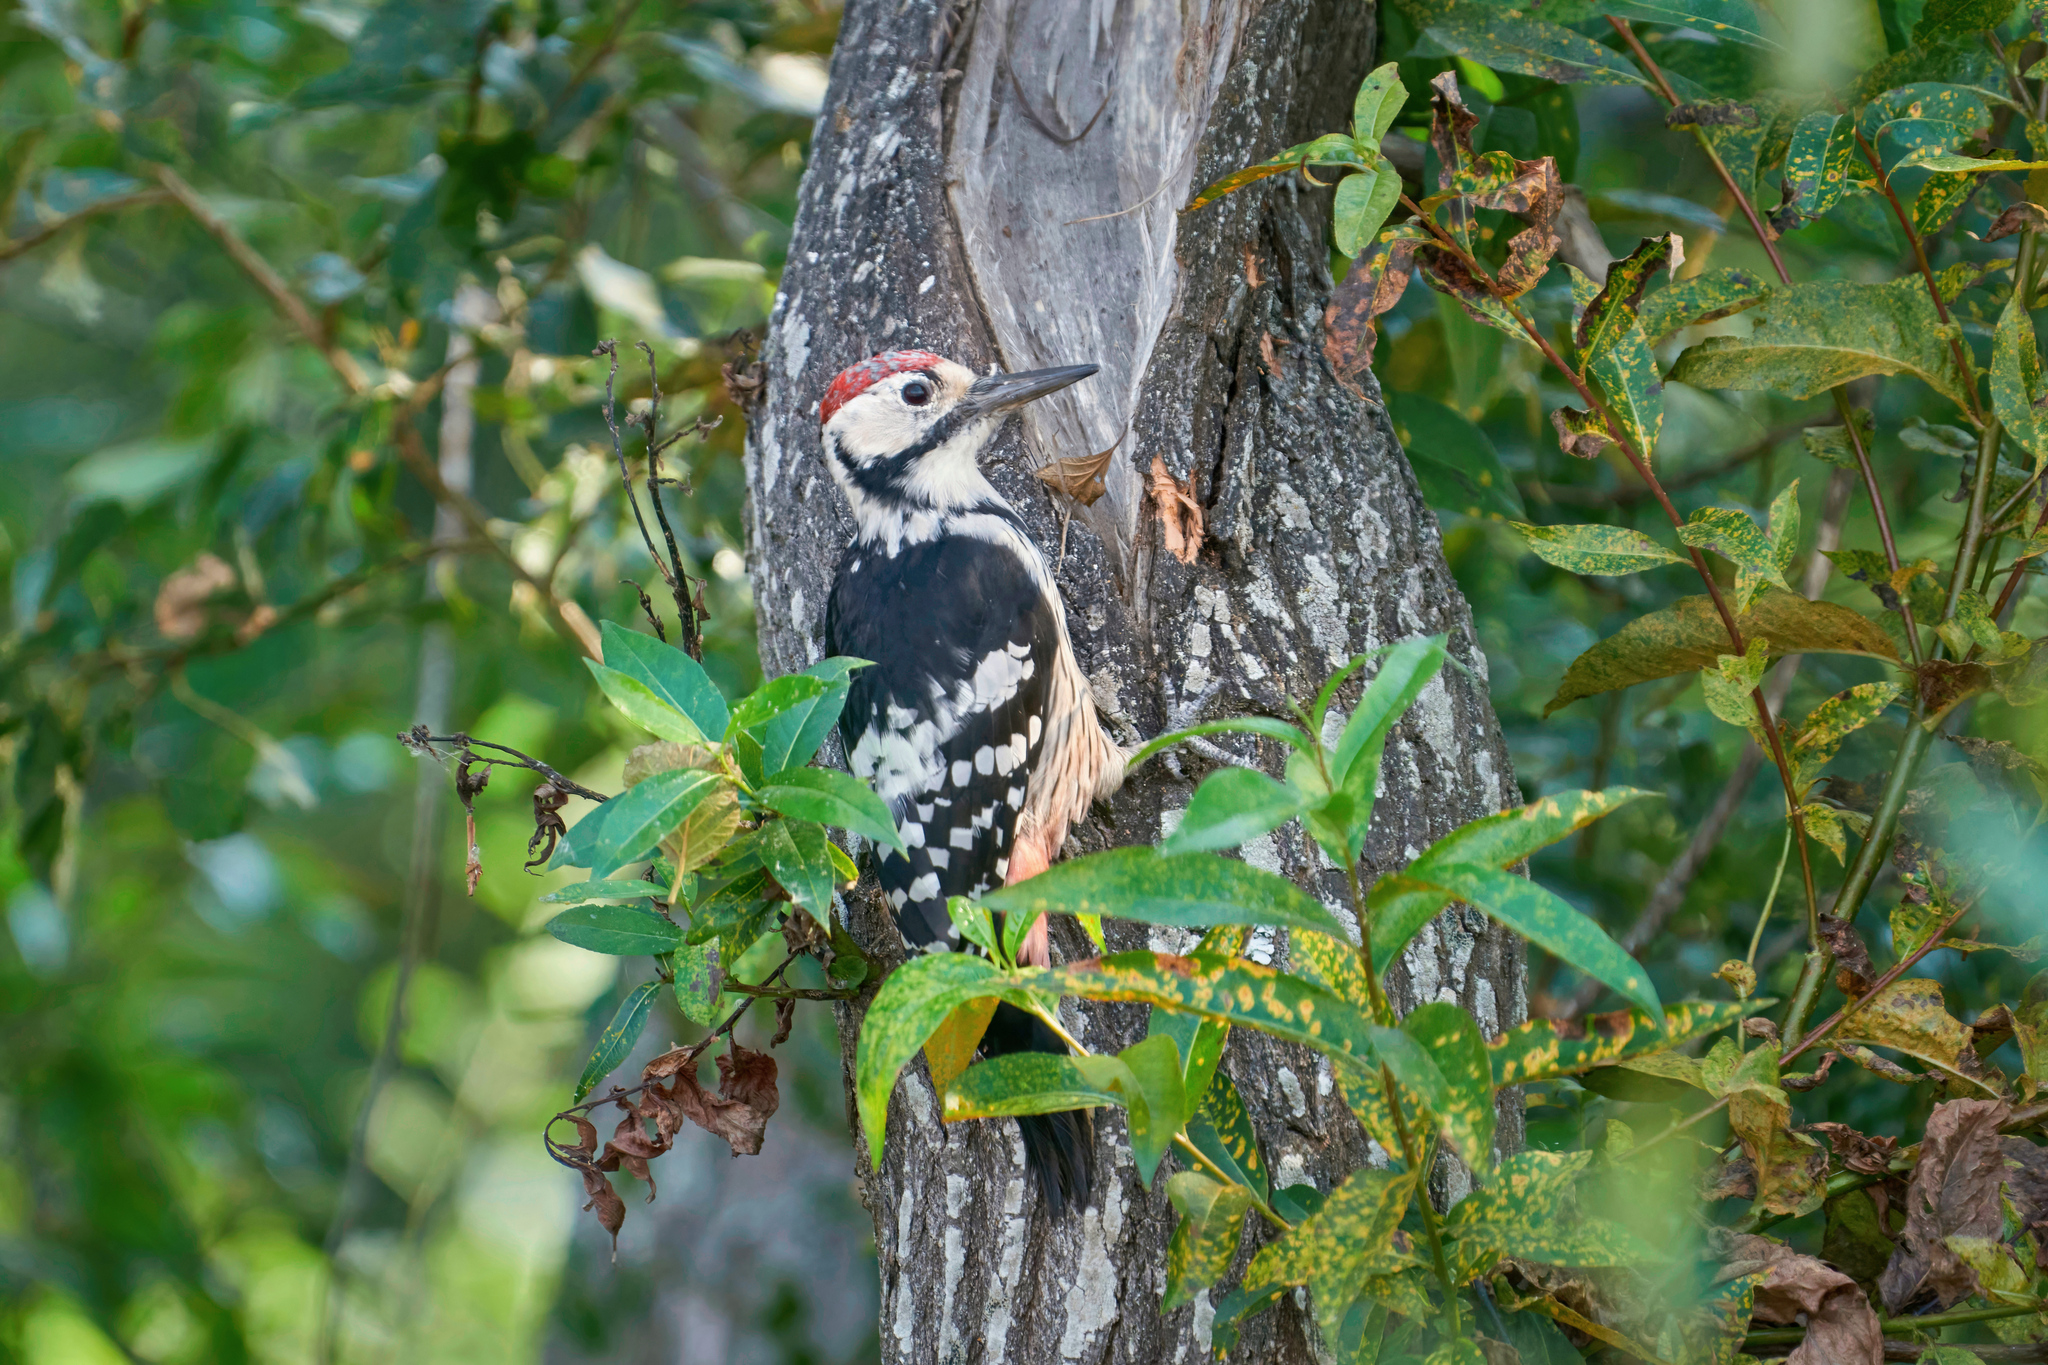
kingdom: Animalia
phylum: Chordata
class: Aves
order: Piciformes
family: Picidae
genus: Dendrocopos
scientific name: Dendrocopos leucotos
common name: White-backed woodpecker
